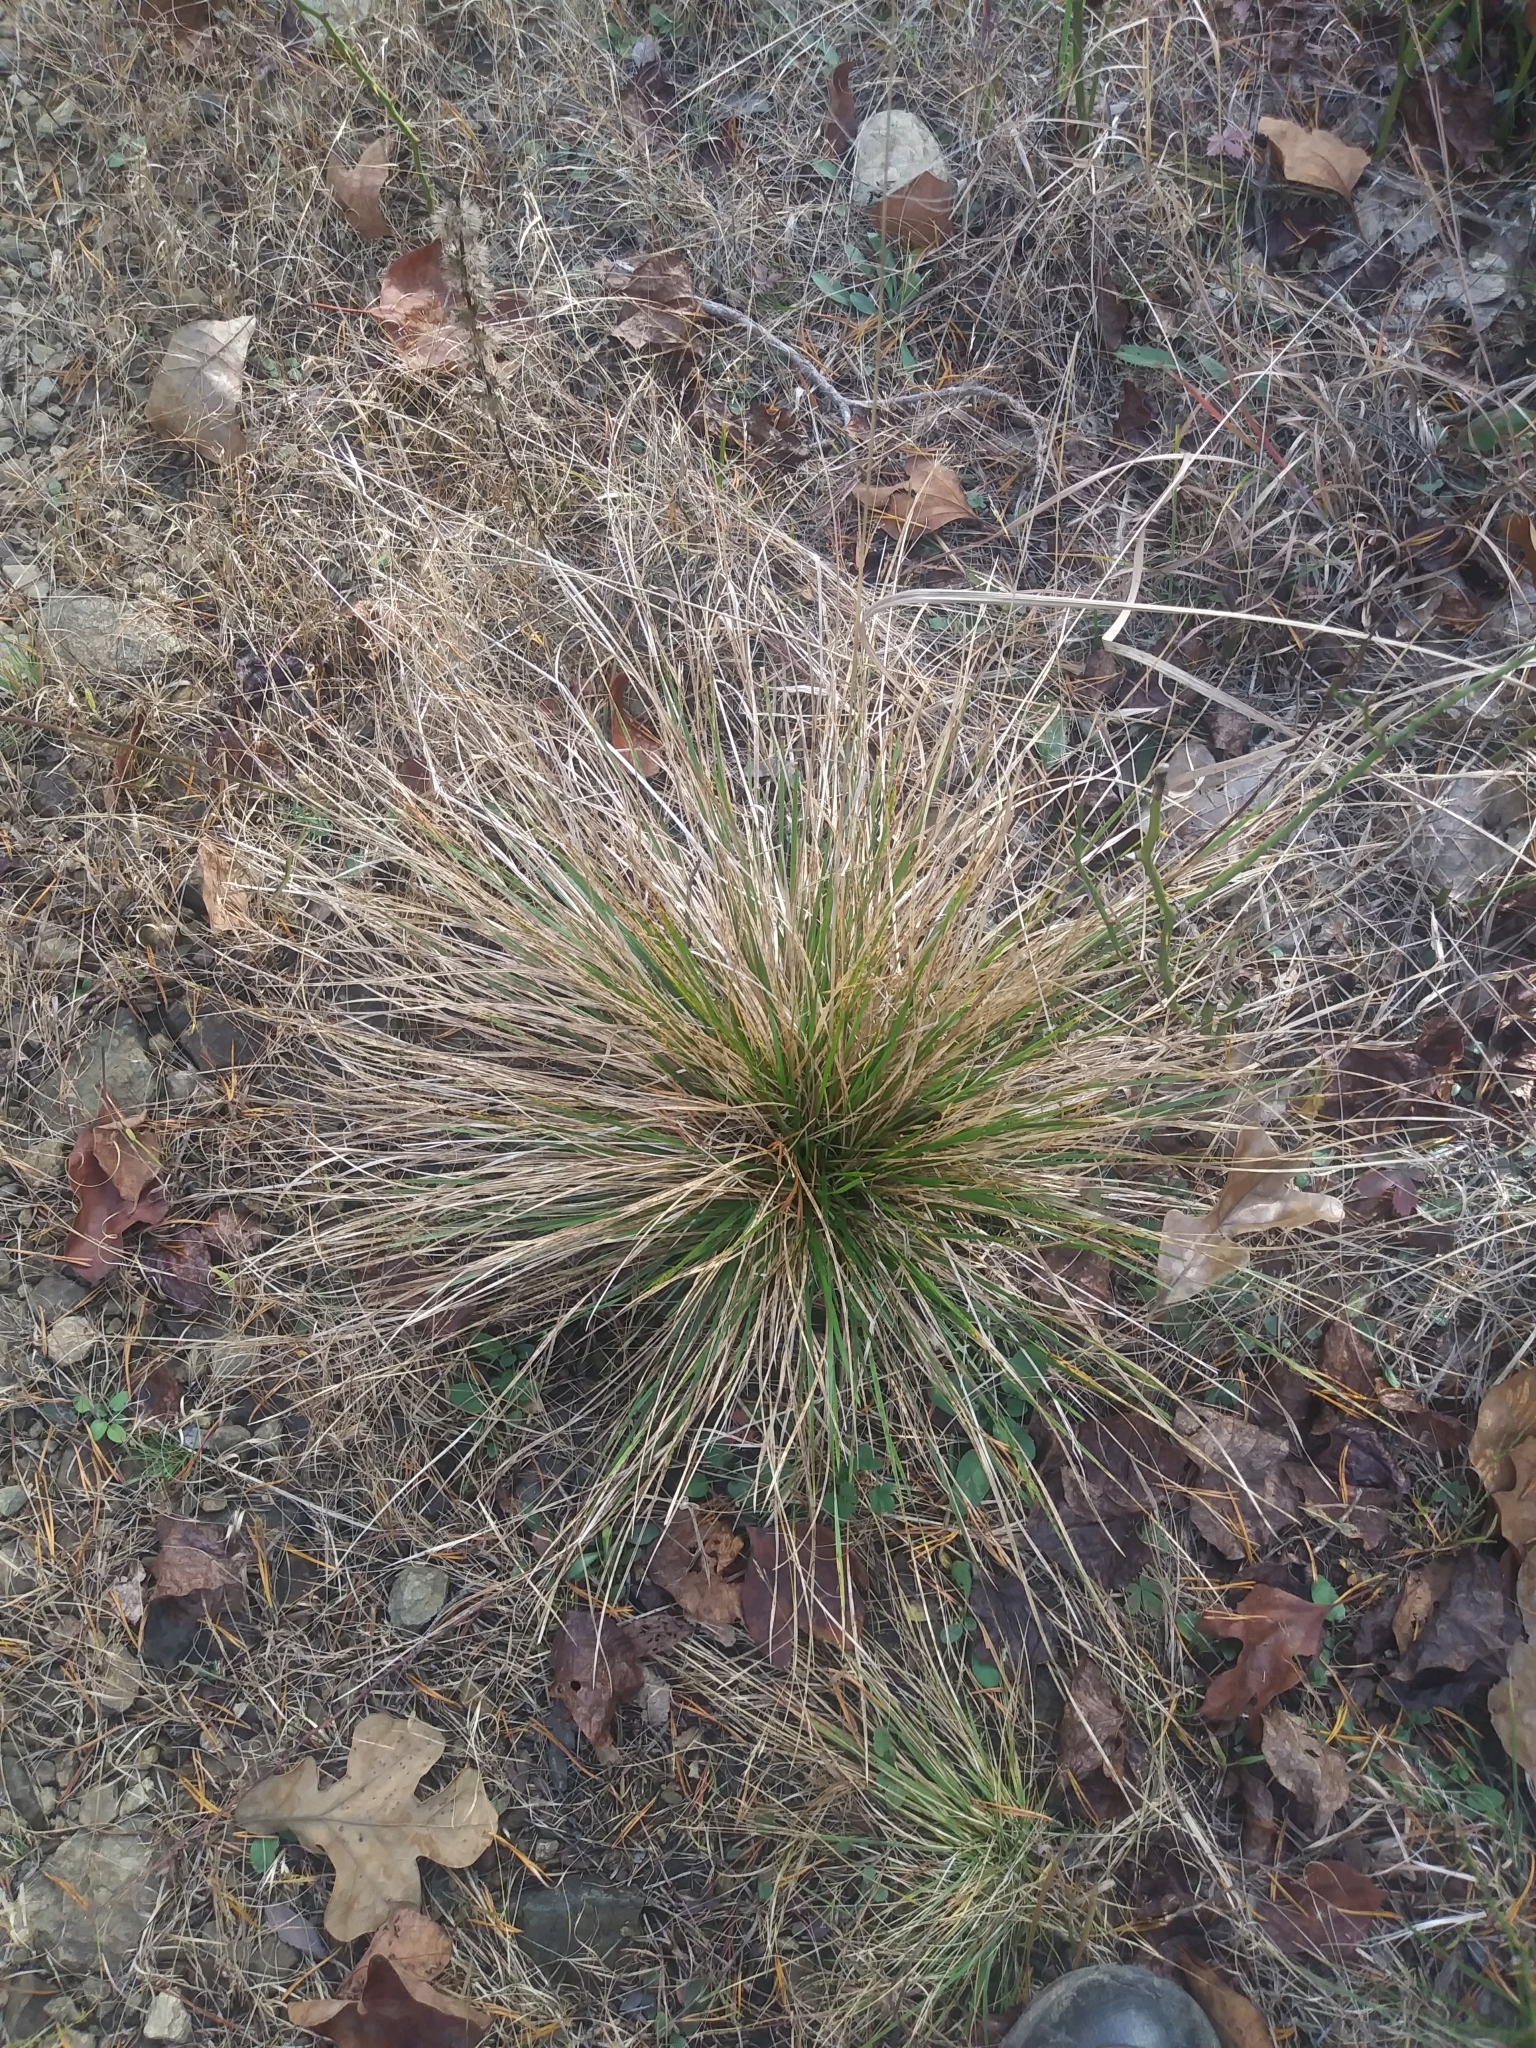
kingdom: Plantae
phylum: Tracheophyta
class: Liliopsida
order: Poales
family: Poaceae
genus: Deschampsia
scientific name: Deschampsia cespitosa
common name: Tufted hair-grass
